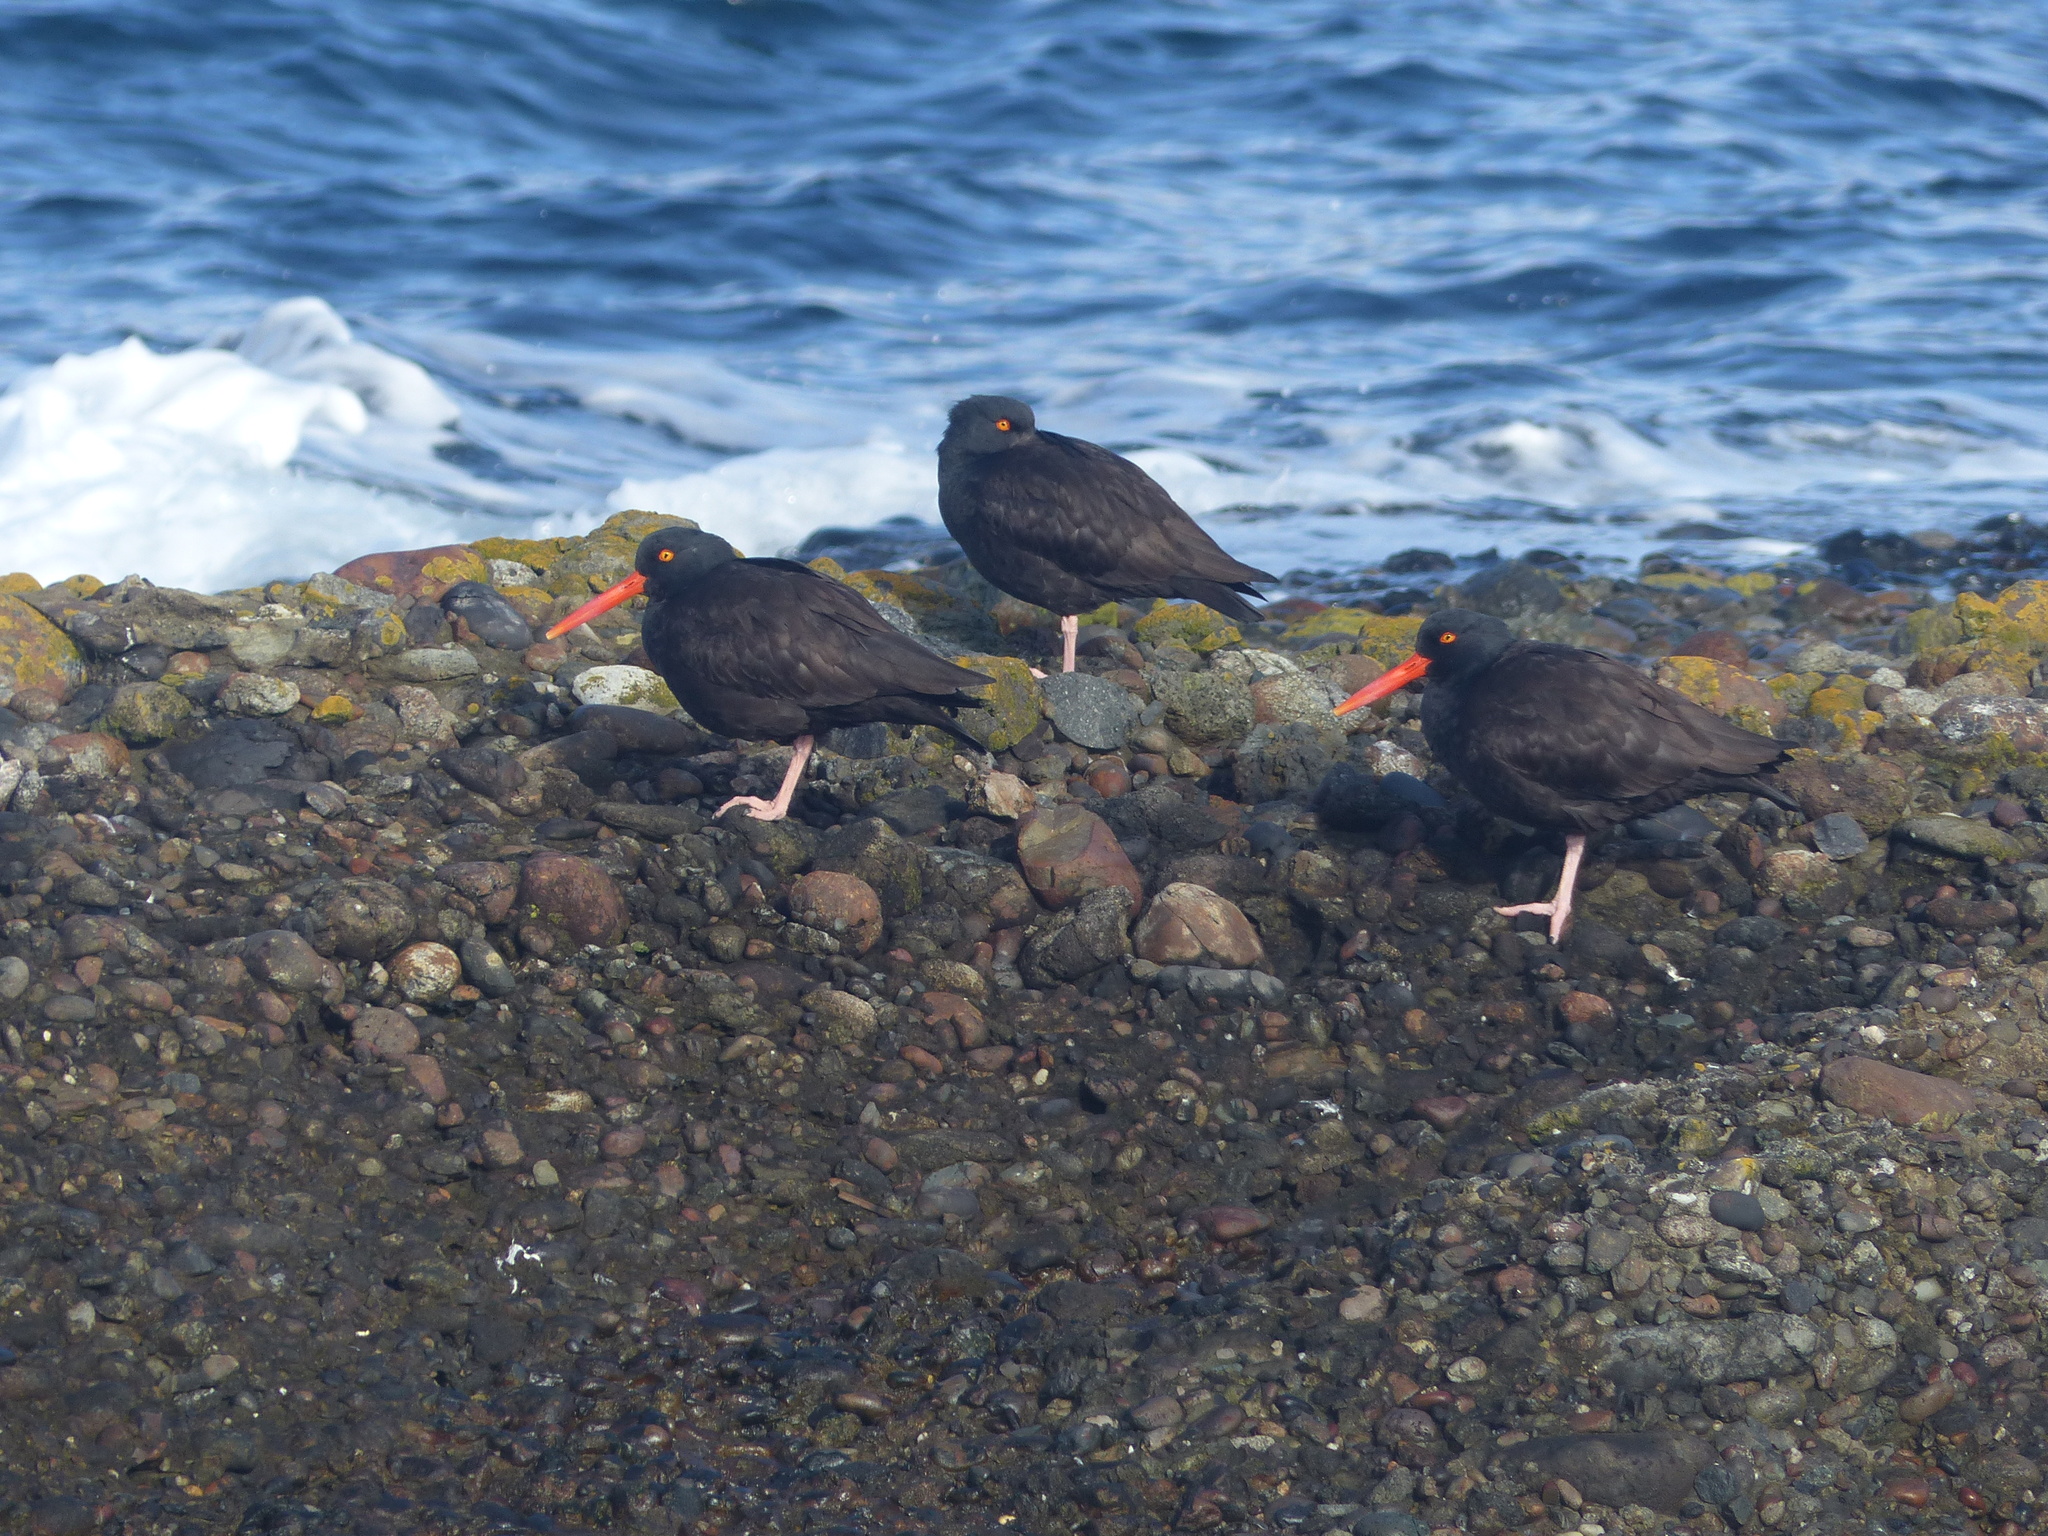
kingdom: Animalia
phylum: Chordata
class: Aves
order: Charadriiformes
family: Haematopodidae
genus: Haematopus
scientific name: Haematopus bachmani
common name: Black oystercatcher
